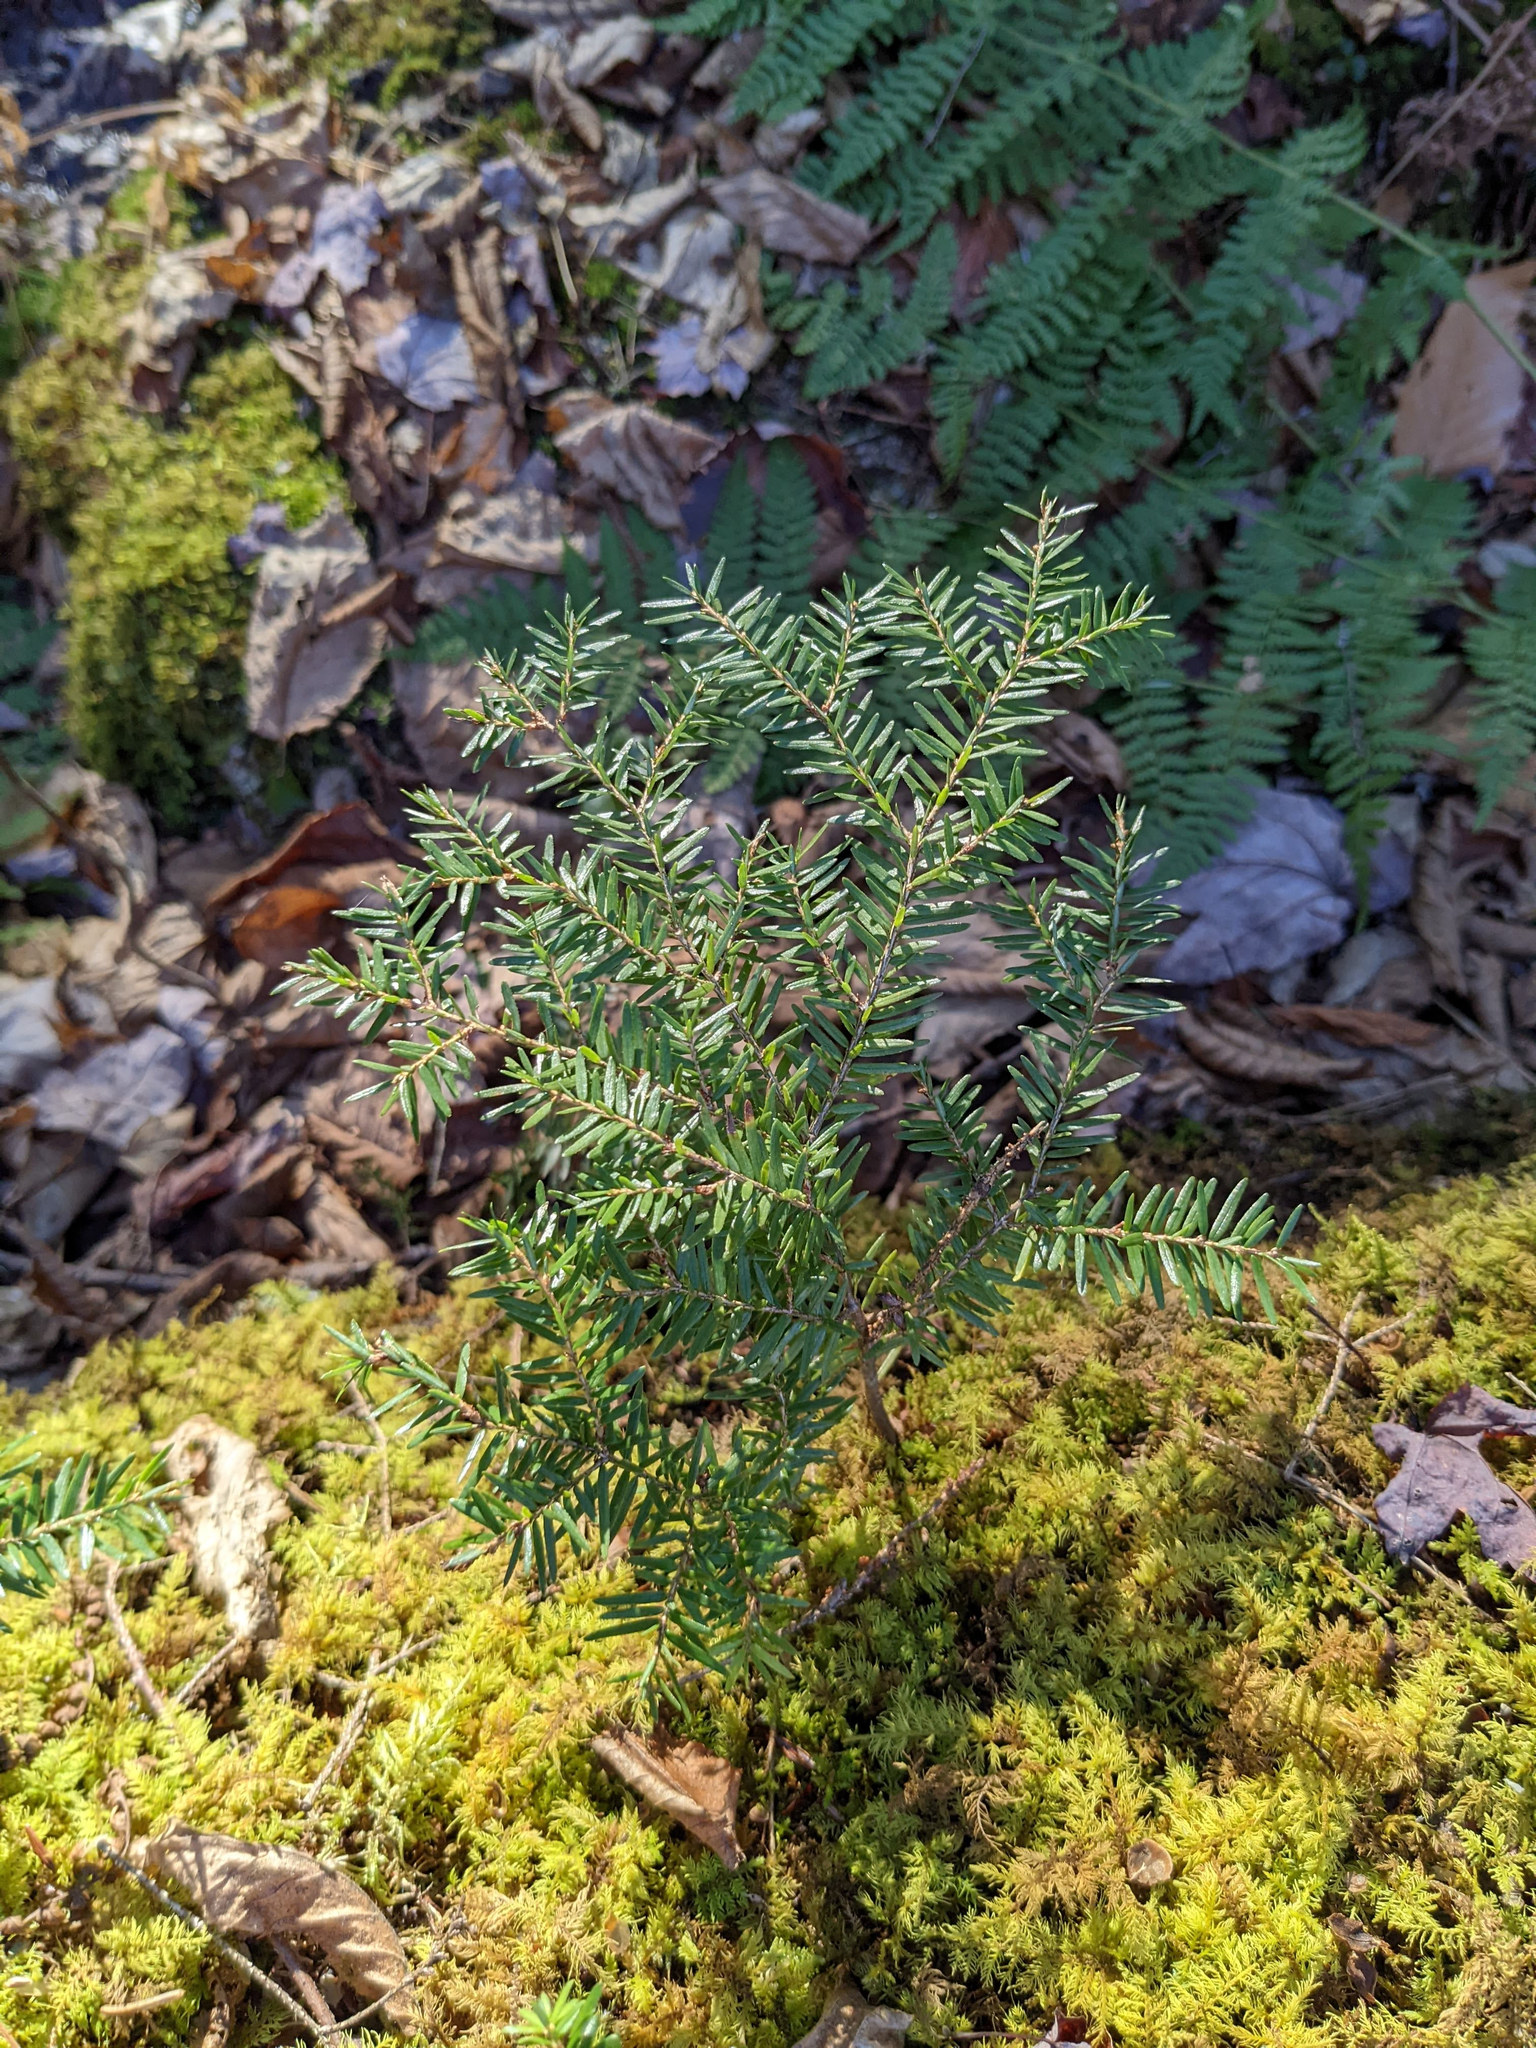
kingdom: Plantae
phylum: Tracheophyta
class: Pinopsida
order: Pinales
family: Pinaceae
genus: Tsuga
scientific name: Tsuga canadensis
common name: Eastern hemlock
